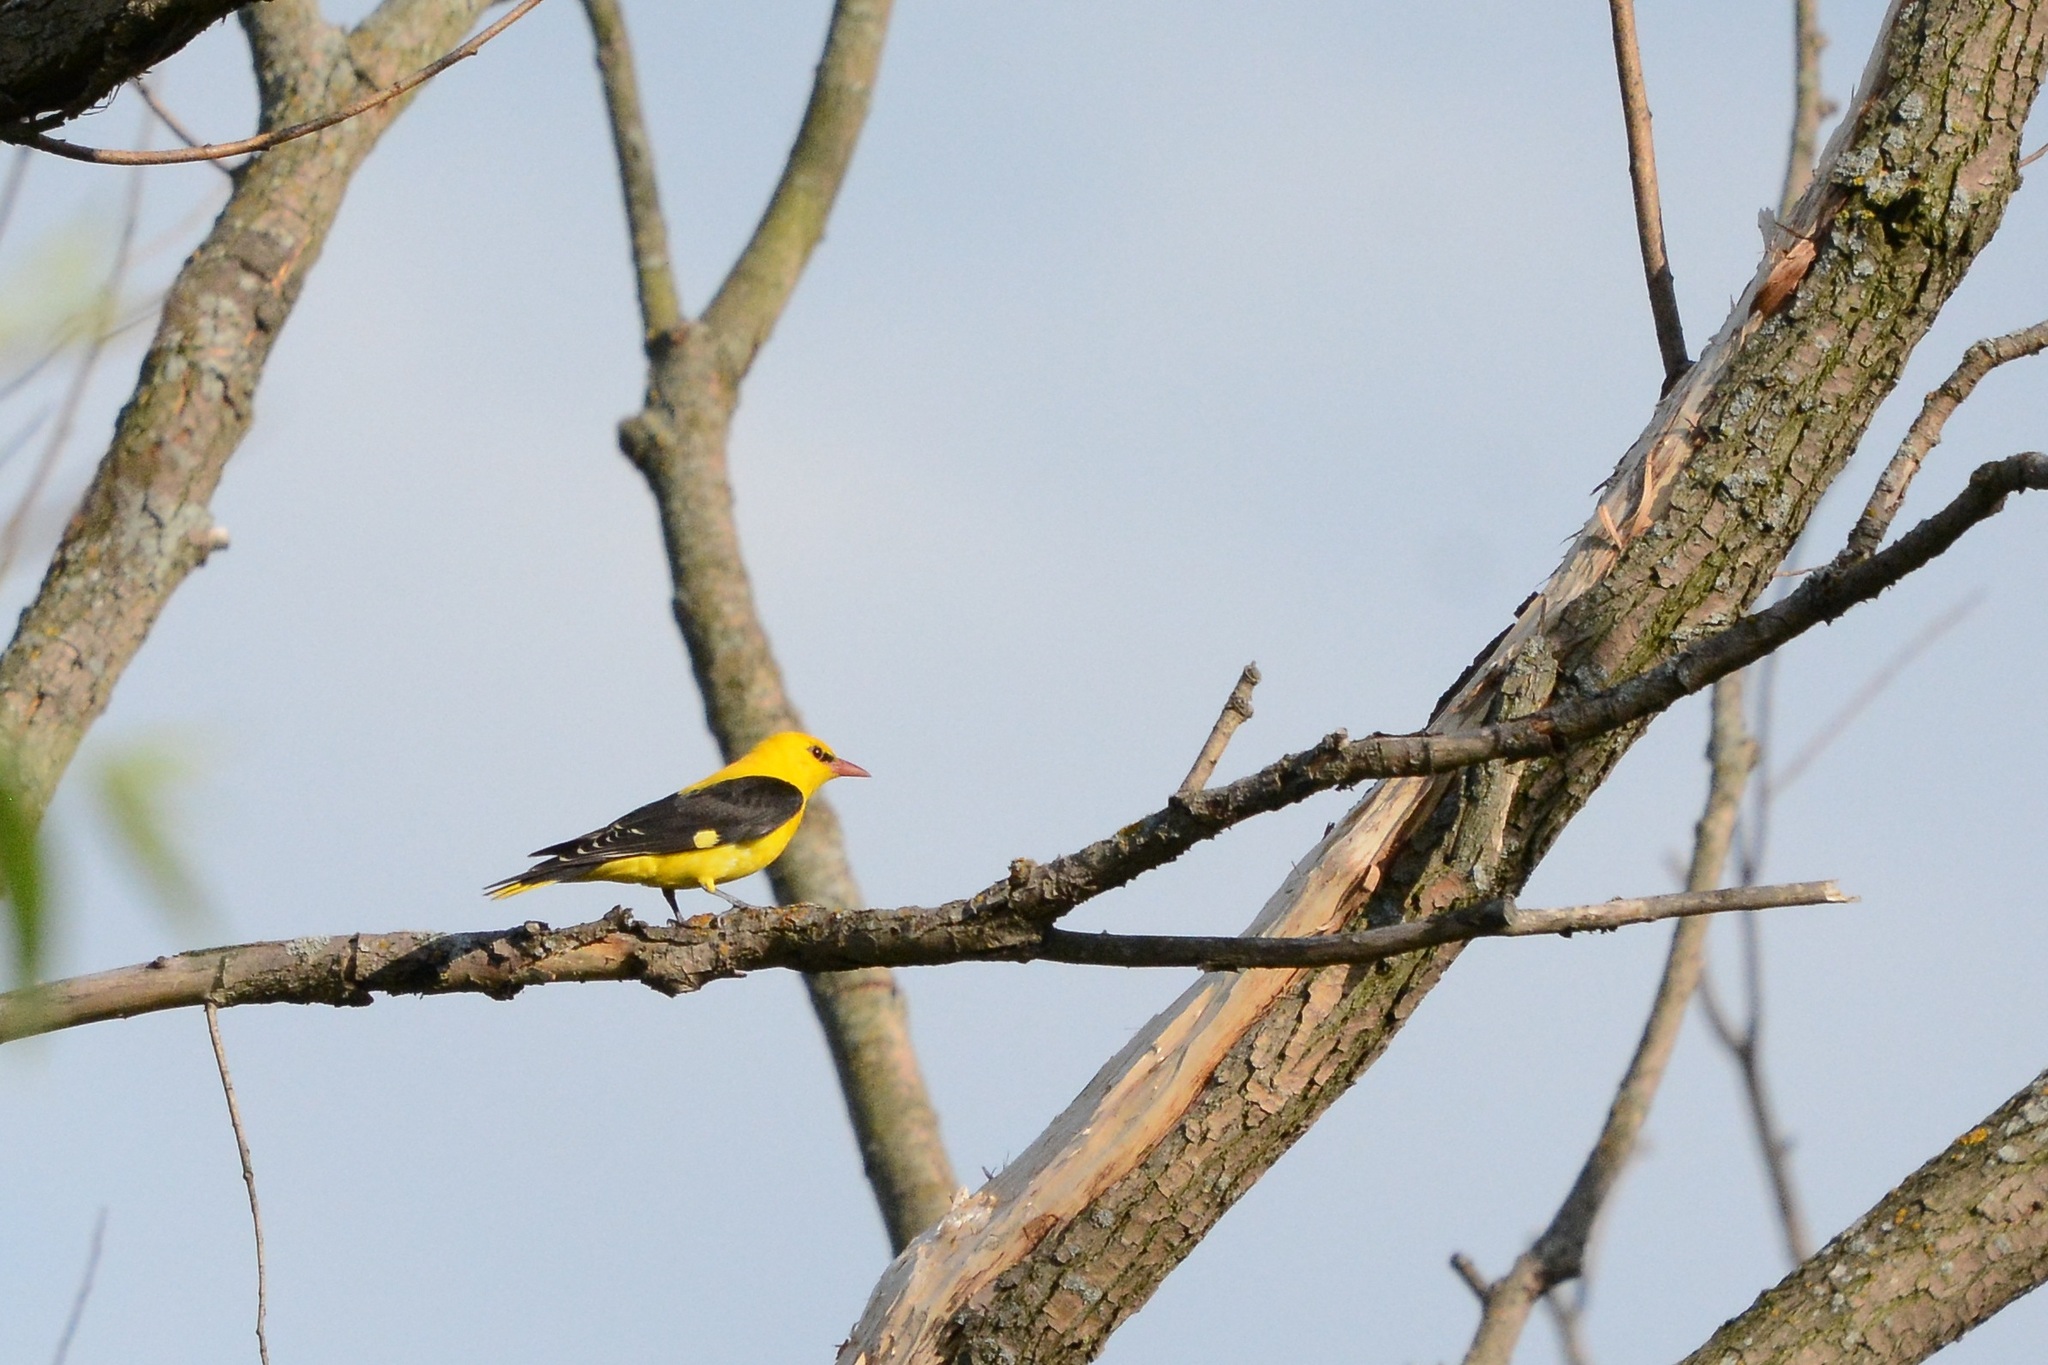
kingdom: Animalia
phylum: Chordata
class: Aves
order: Passeriformes
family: Oriolidae
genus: Oriolus
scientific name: Oriolus oriolus
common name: Eurasian golden oriole
